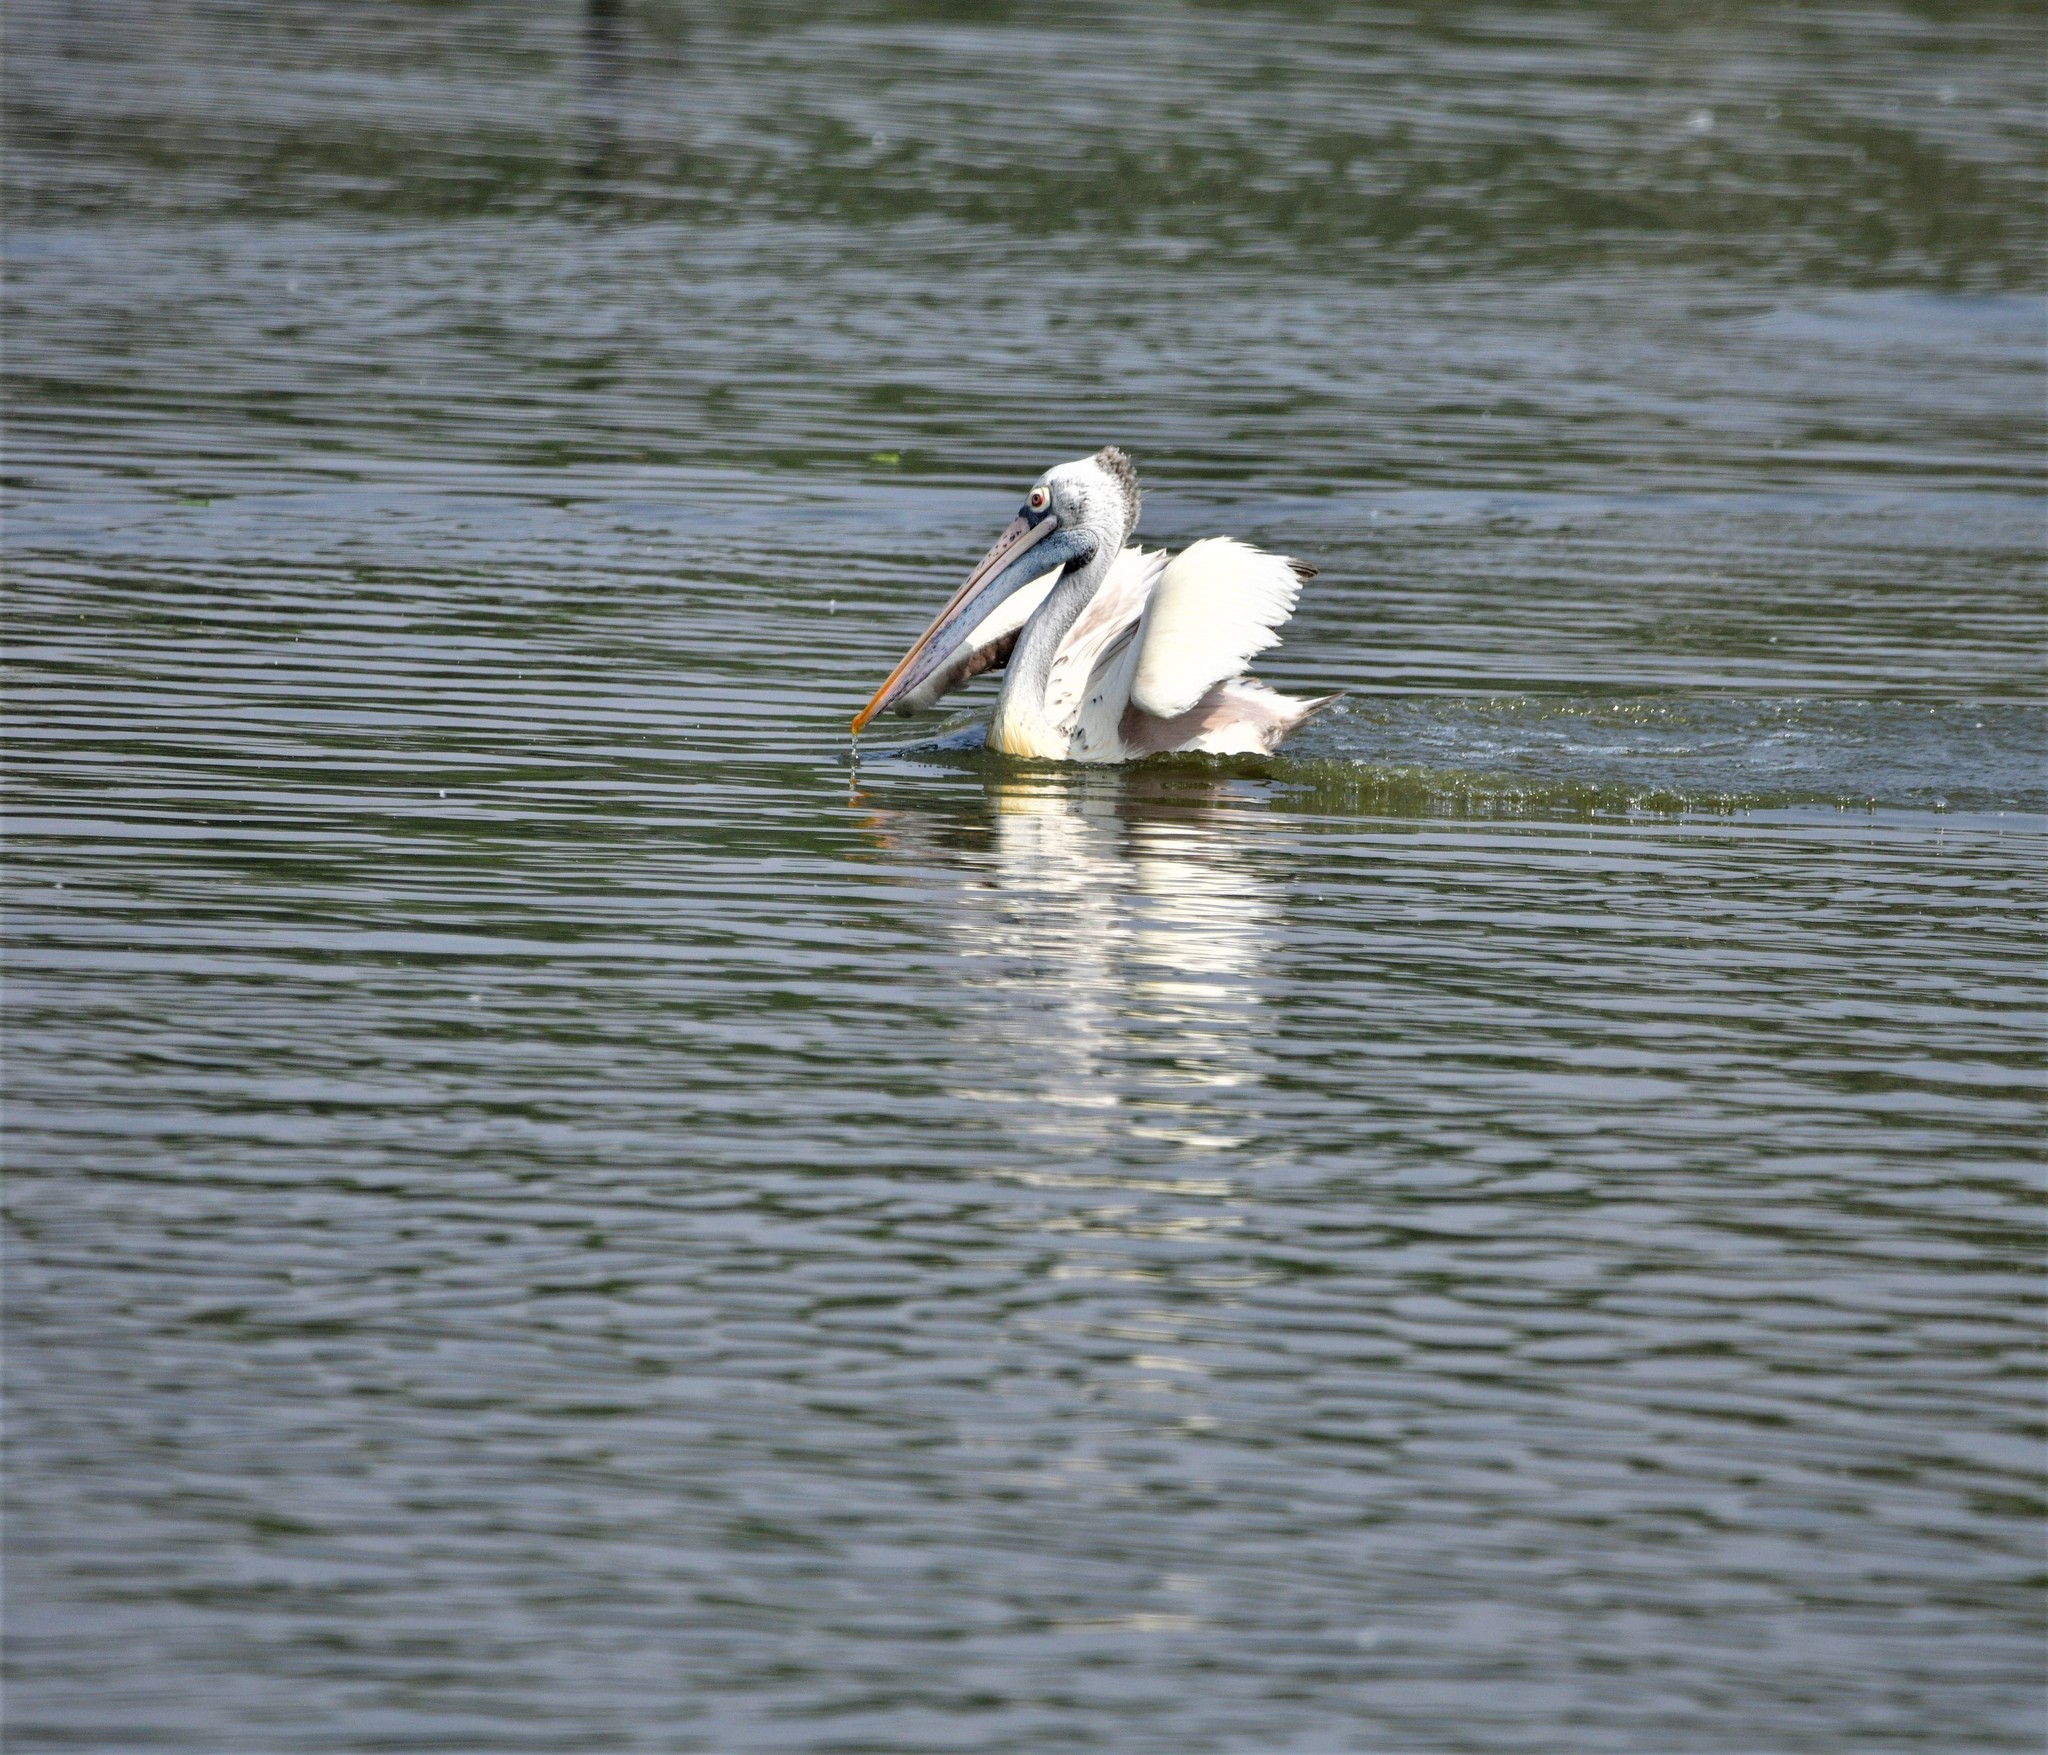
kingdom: Animalia
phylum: Chordata
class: Aves
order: Pelecaniformes
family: Pelecanidae
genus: Pelecanus
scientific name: Pelecanus philippensis
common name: Spot-billed pelican
